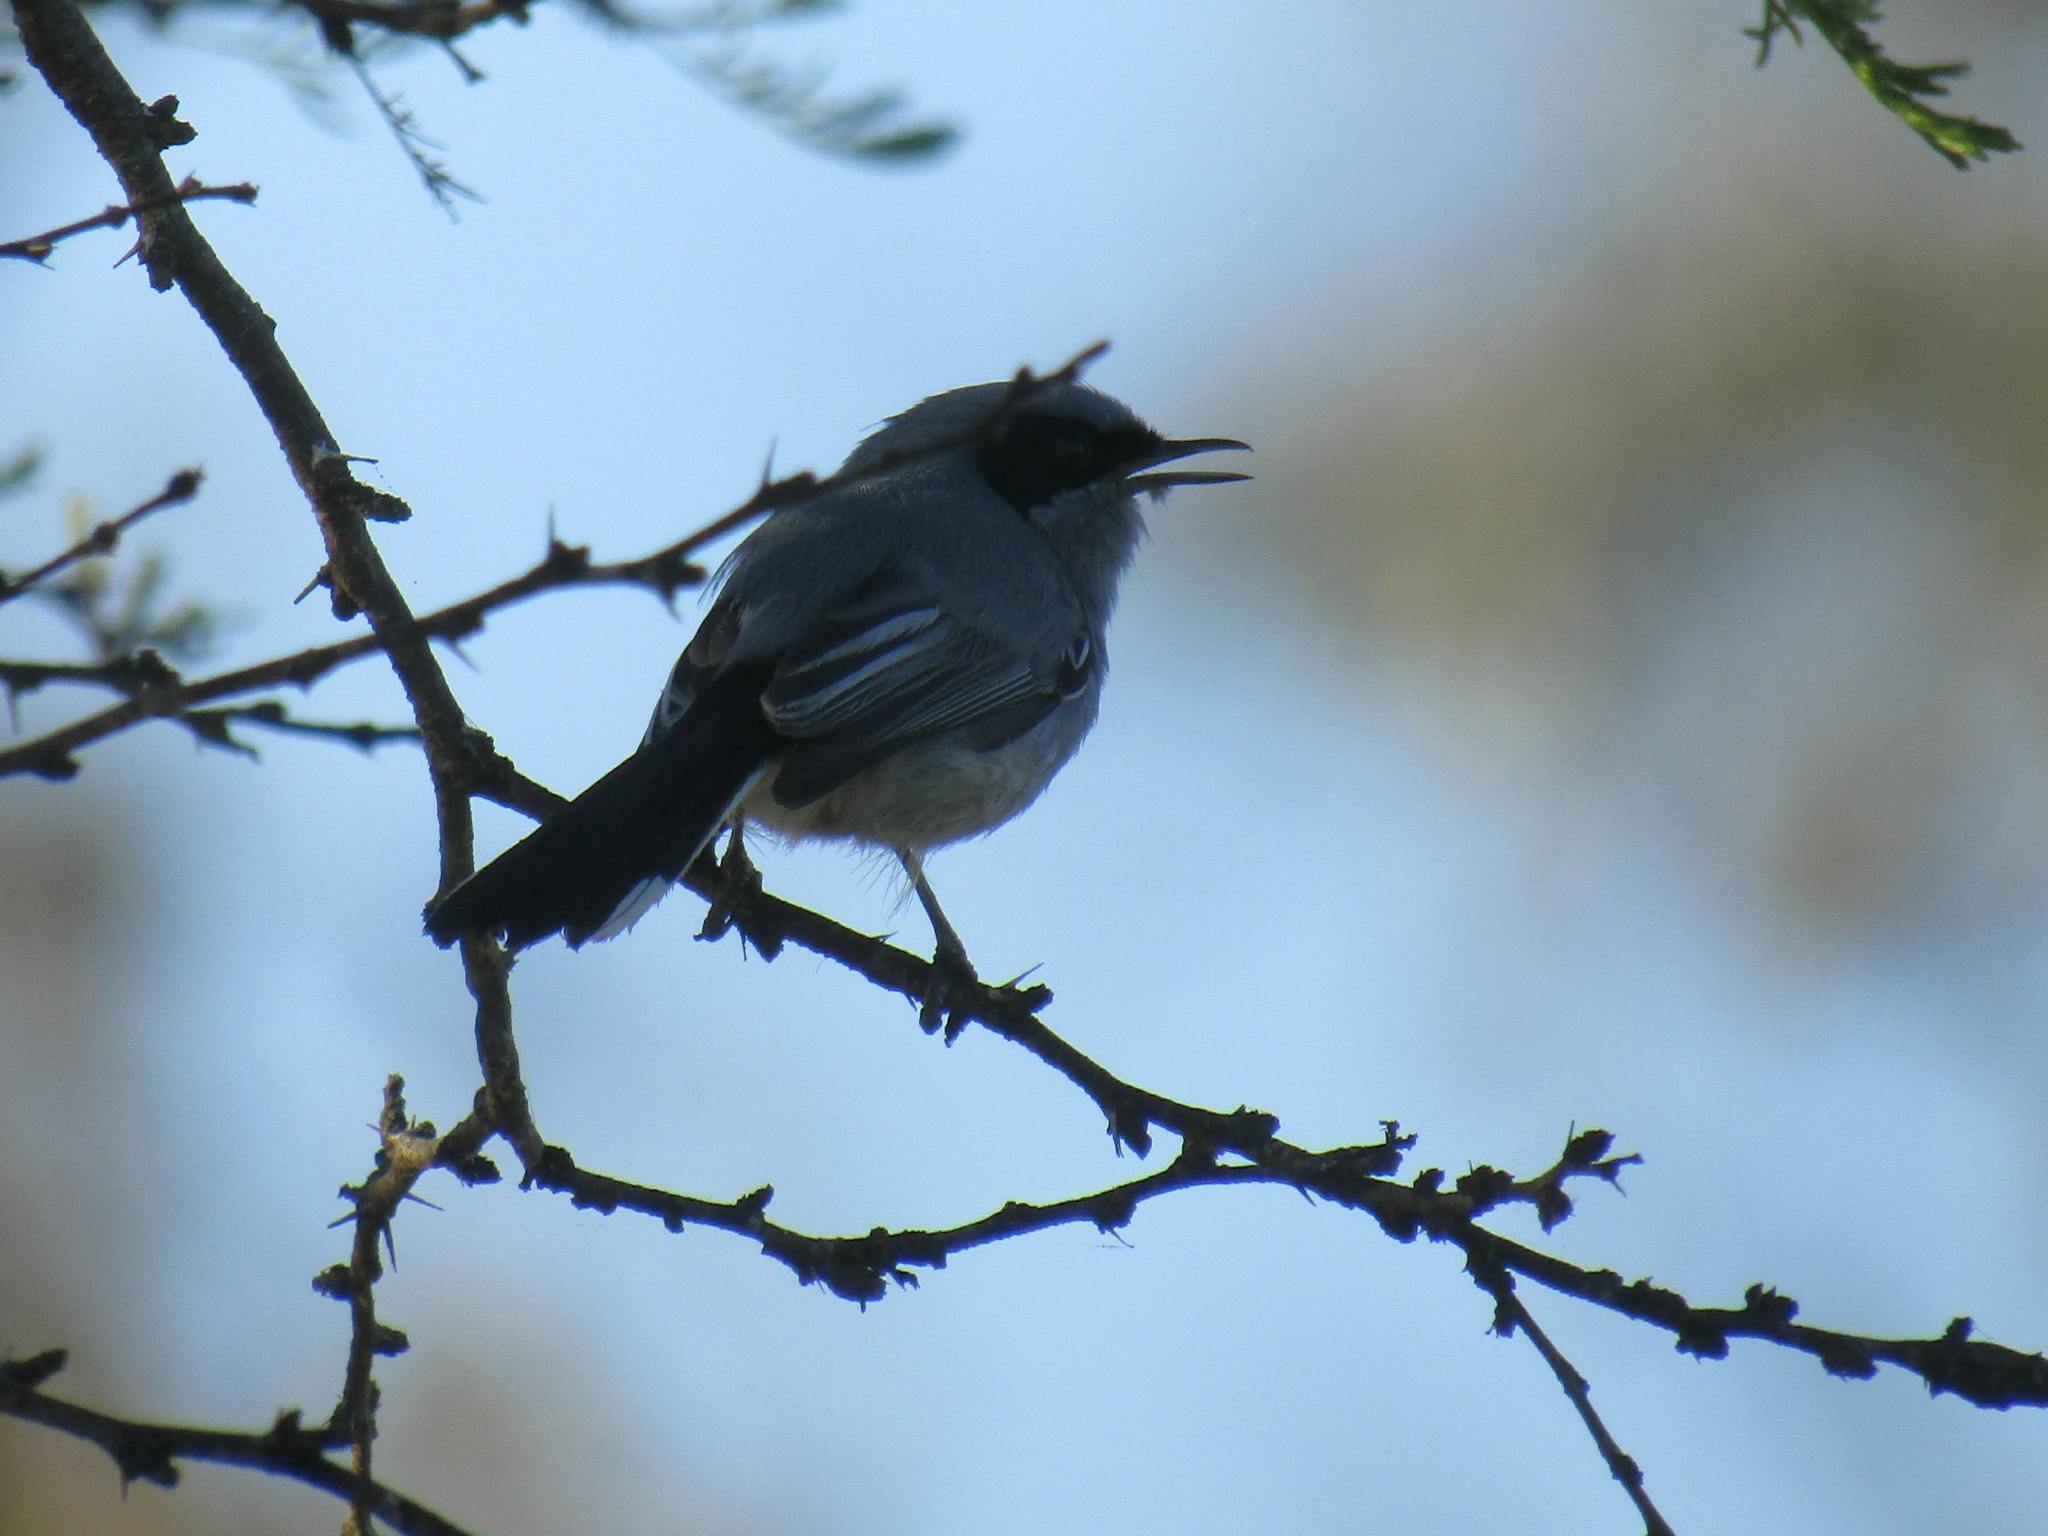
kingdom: Animalia
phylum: Chordata
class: Aves
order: Passeriformes
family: Polioptilidae
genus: Polioptila
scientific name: Polioptila dumicola
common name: Masked gnatcatcher
